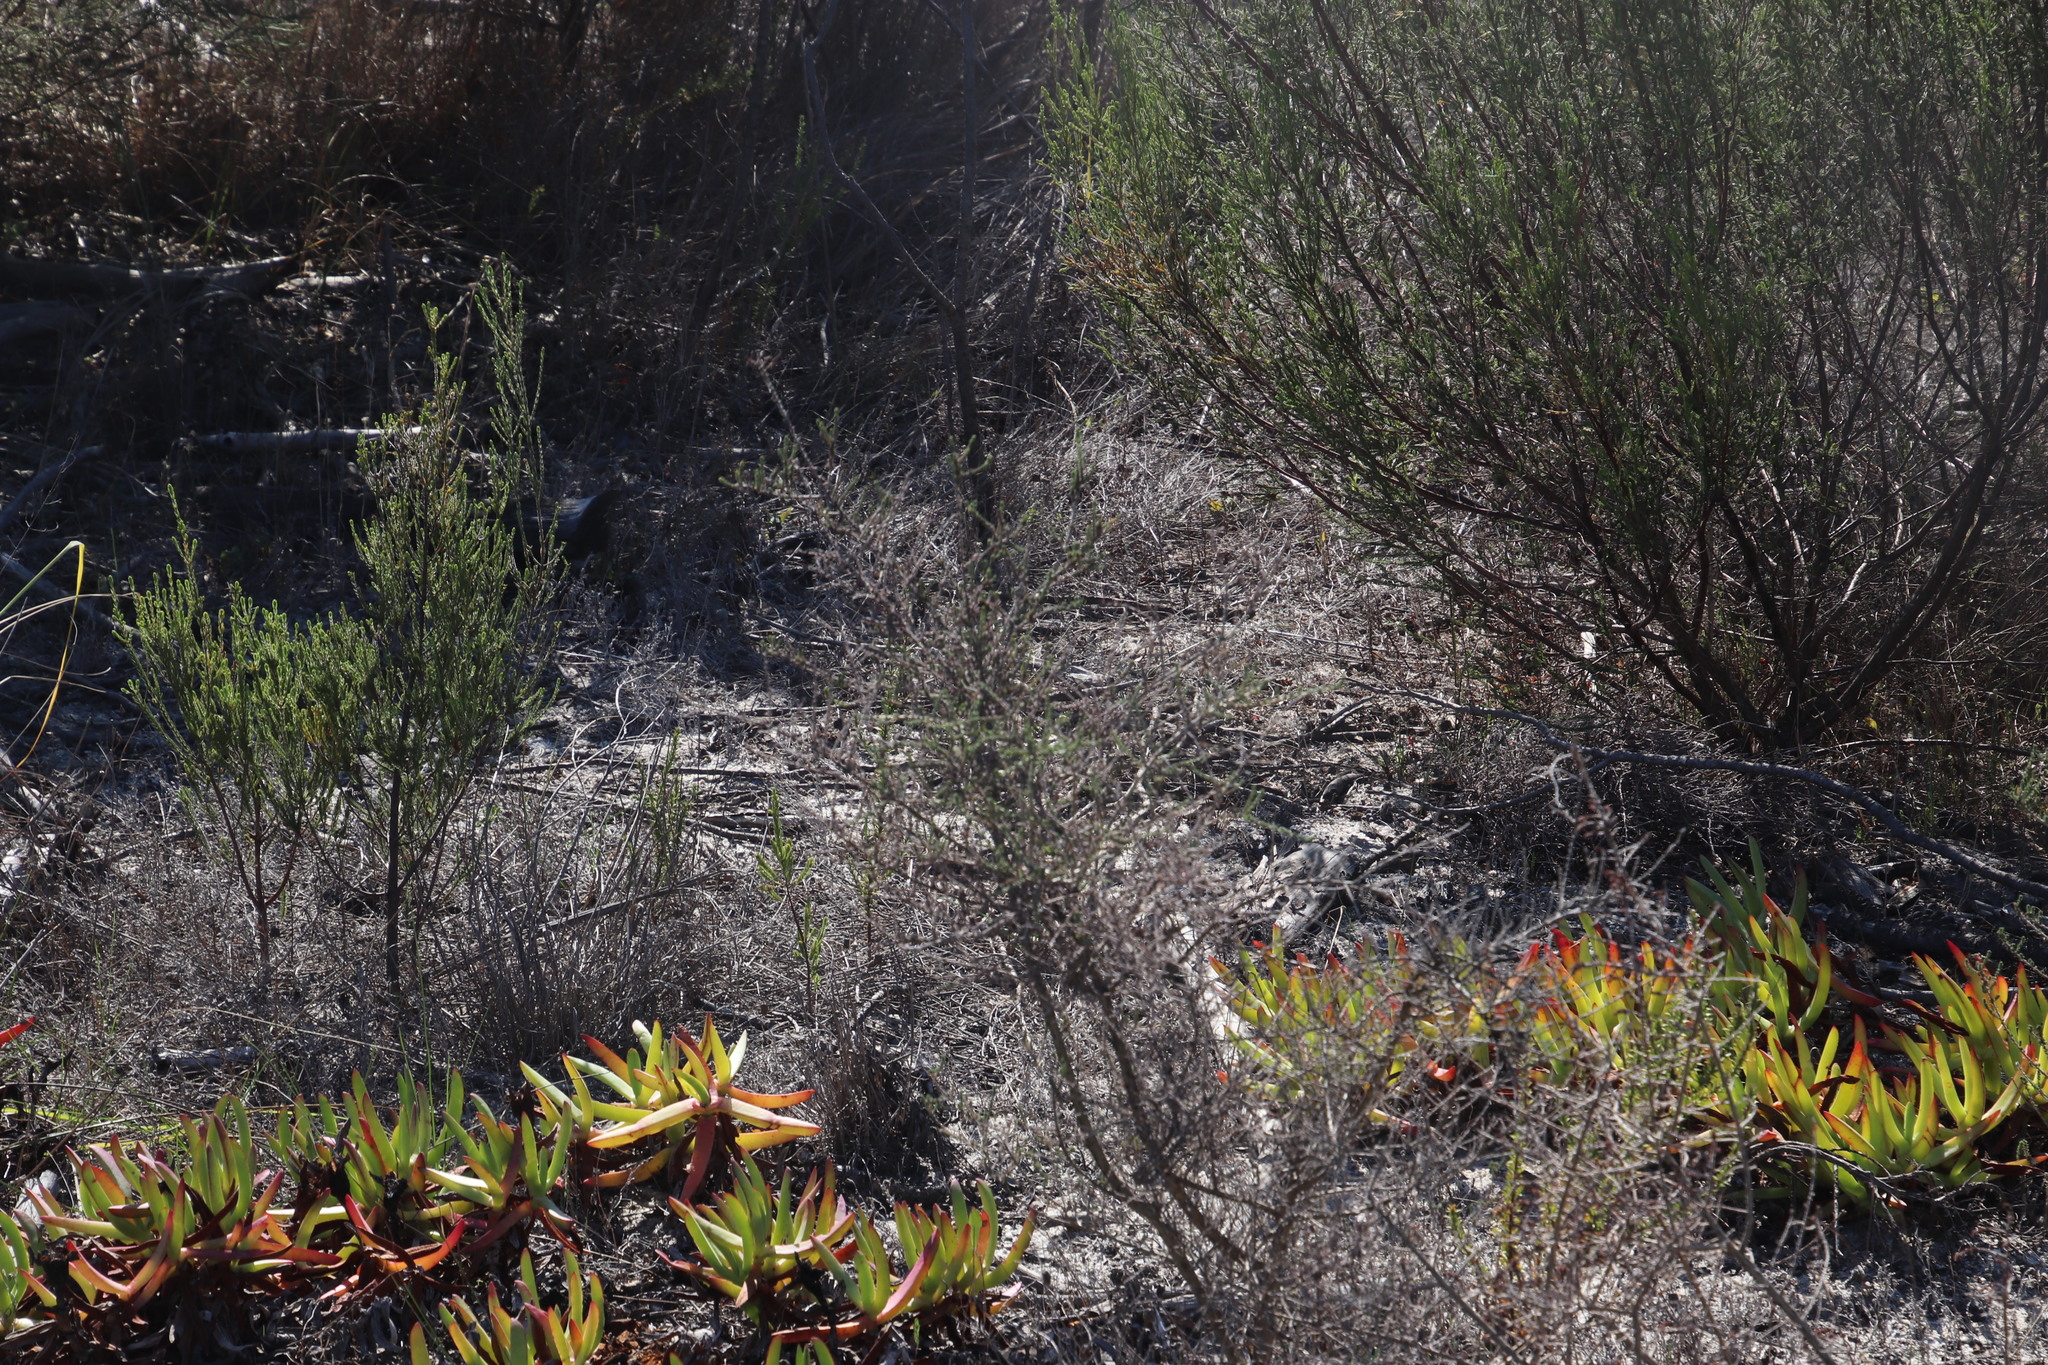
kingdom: Plantae
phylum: Tracheophyta
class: Magnoliopsida
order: Fabales
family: Fabaceae
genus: Aspalathus
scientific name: Aspalathus hispida
